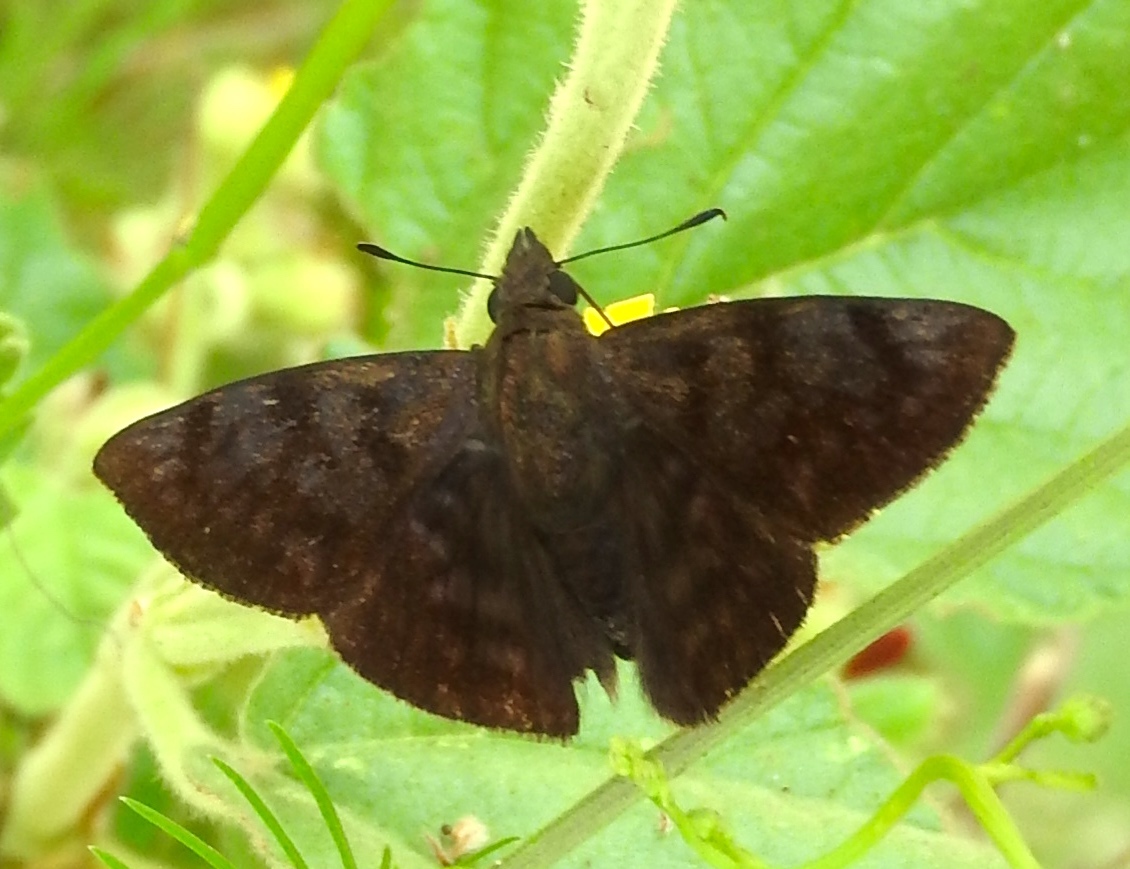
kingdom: Animalia
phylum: Arthropoda
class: Insecta
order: Lepidoptera
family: Hesperiidae
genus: Pellicia
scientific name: Pellicia costimacula
